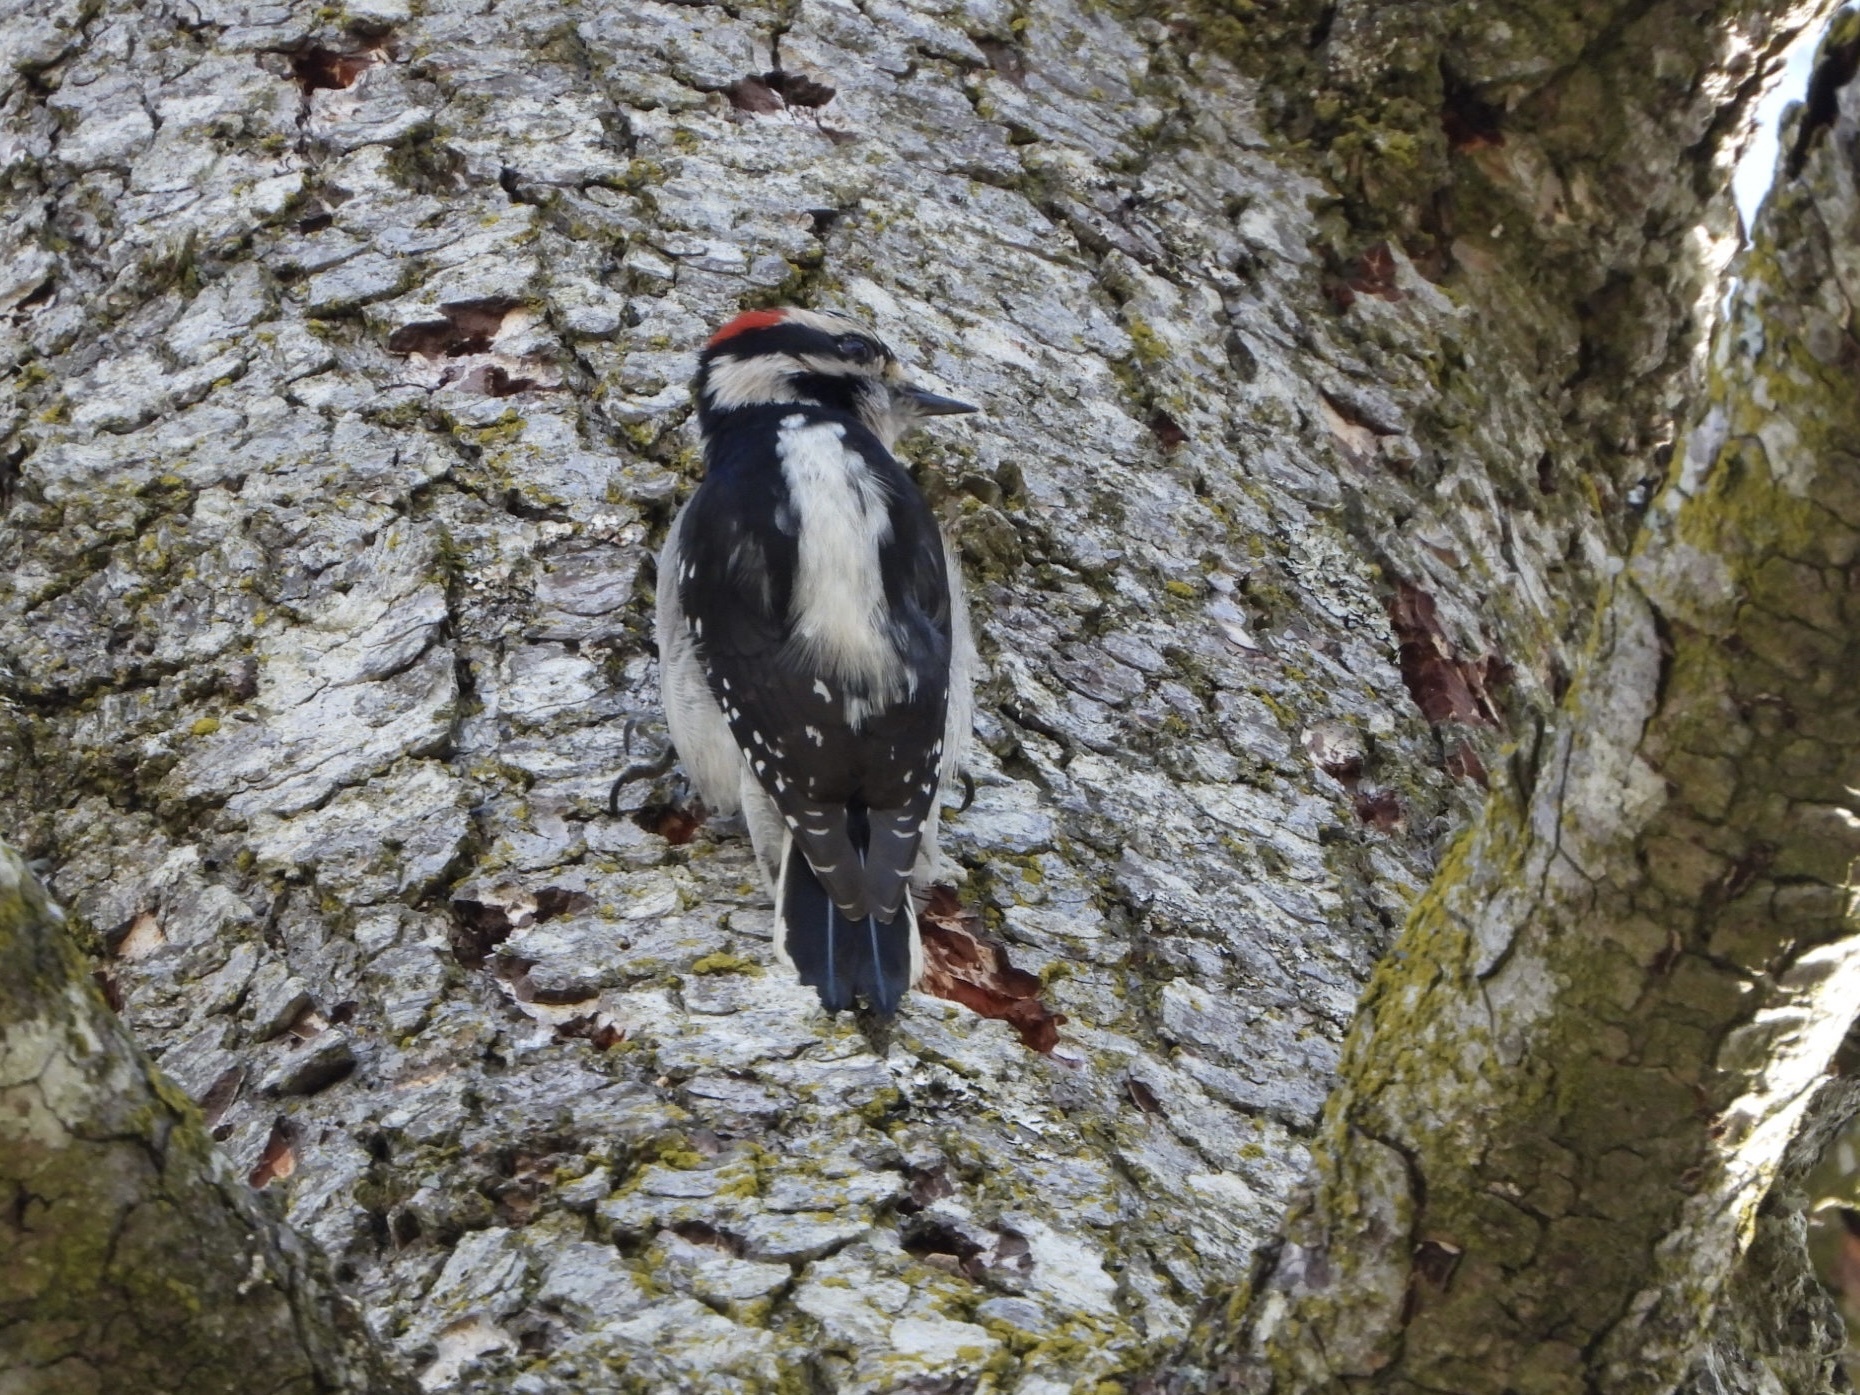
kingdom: Animalia
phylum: Chordata
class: Aves
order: Piciformes
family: Picidae
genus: Dryobates
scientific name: Dryobates pubescens
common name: Downy woodpecker
